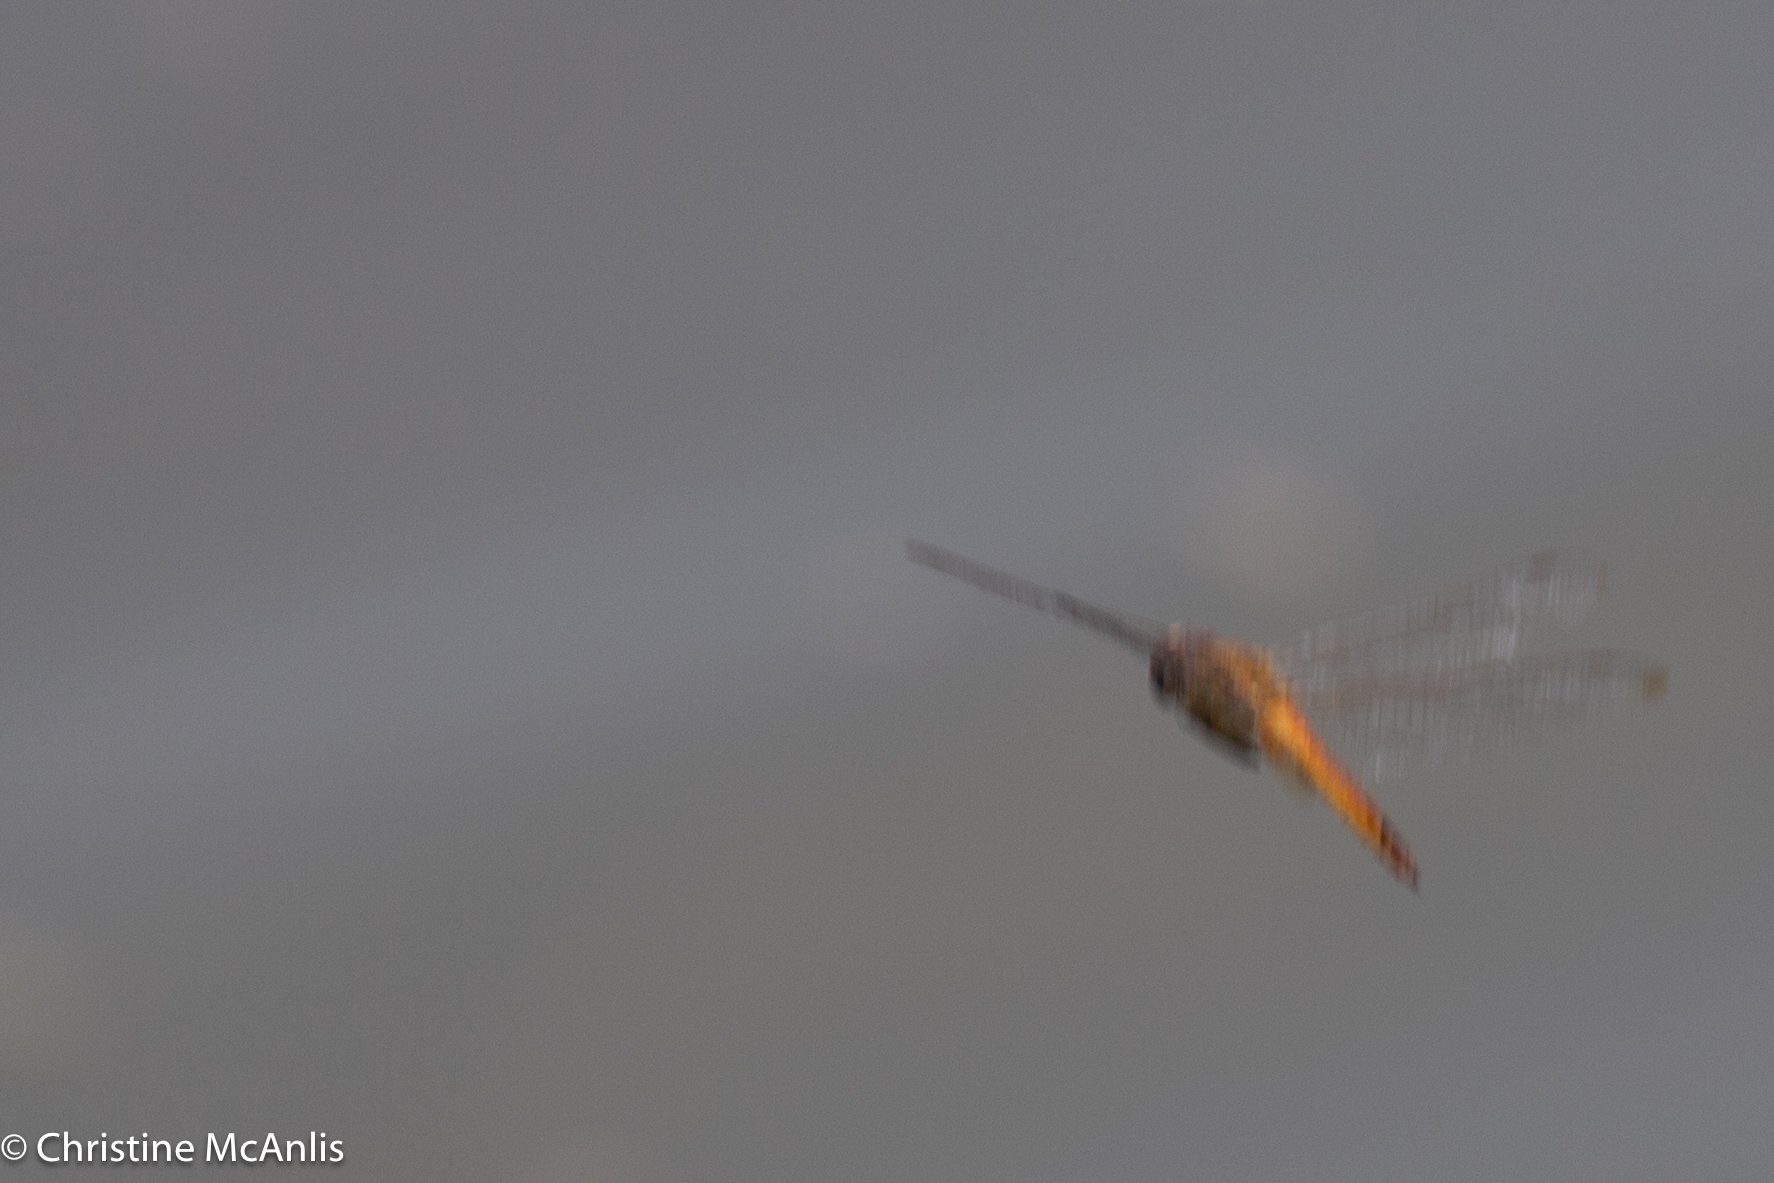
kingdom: Animalia
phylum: Arthropoda
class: Insecta
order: Odonata
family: Libellulidae
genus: Pantala
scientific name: Pantala flavescens
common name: Wandering glider
